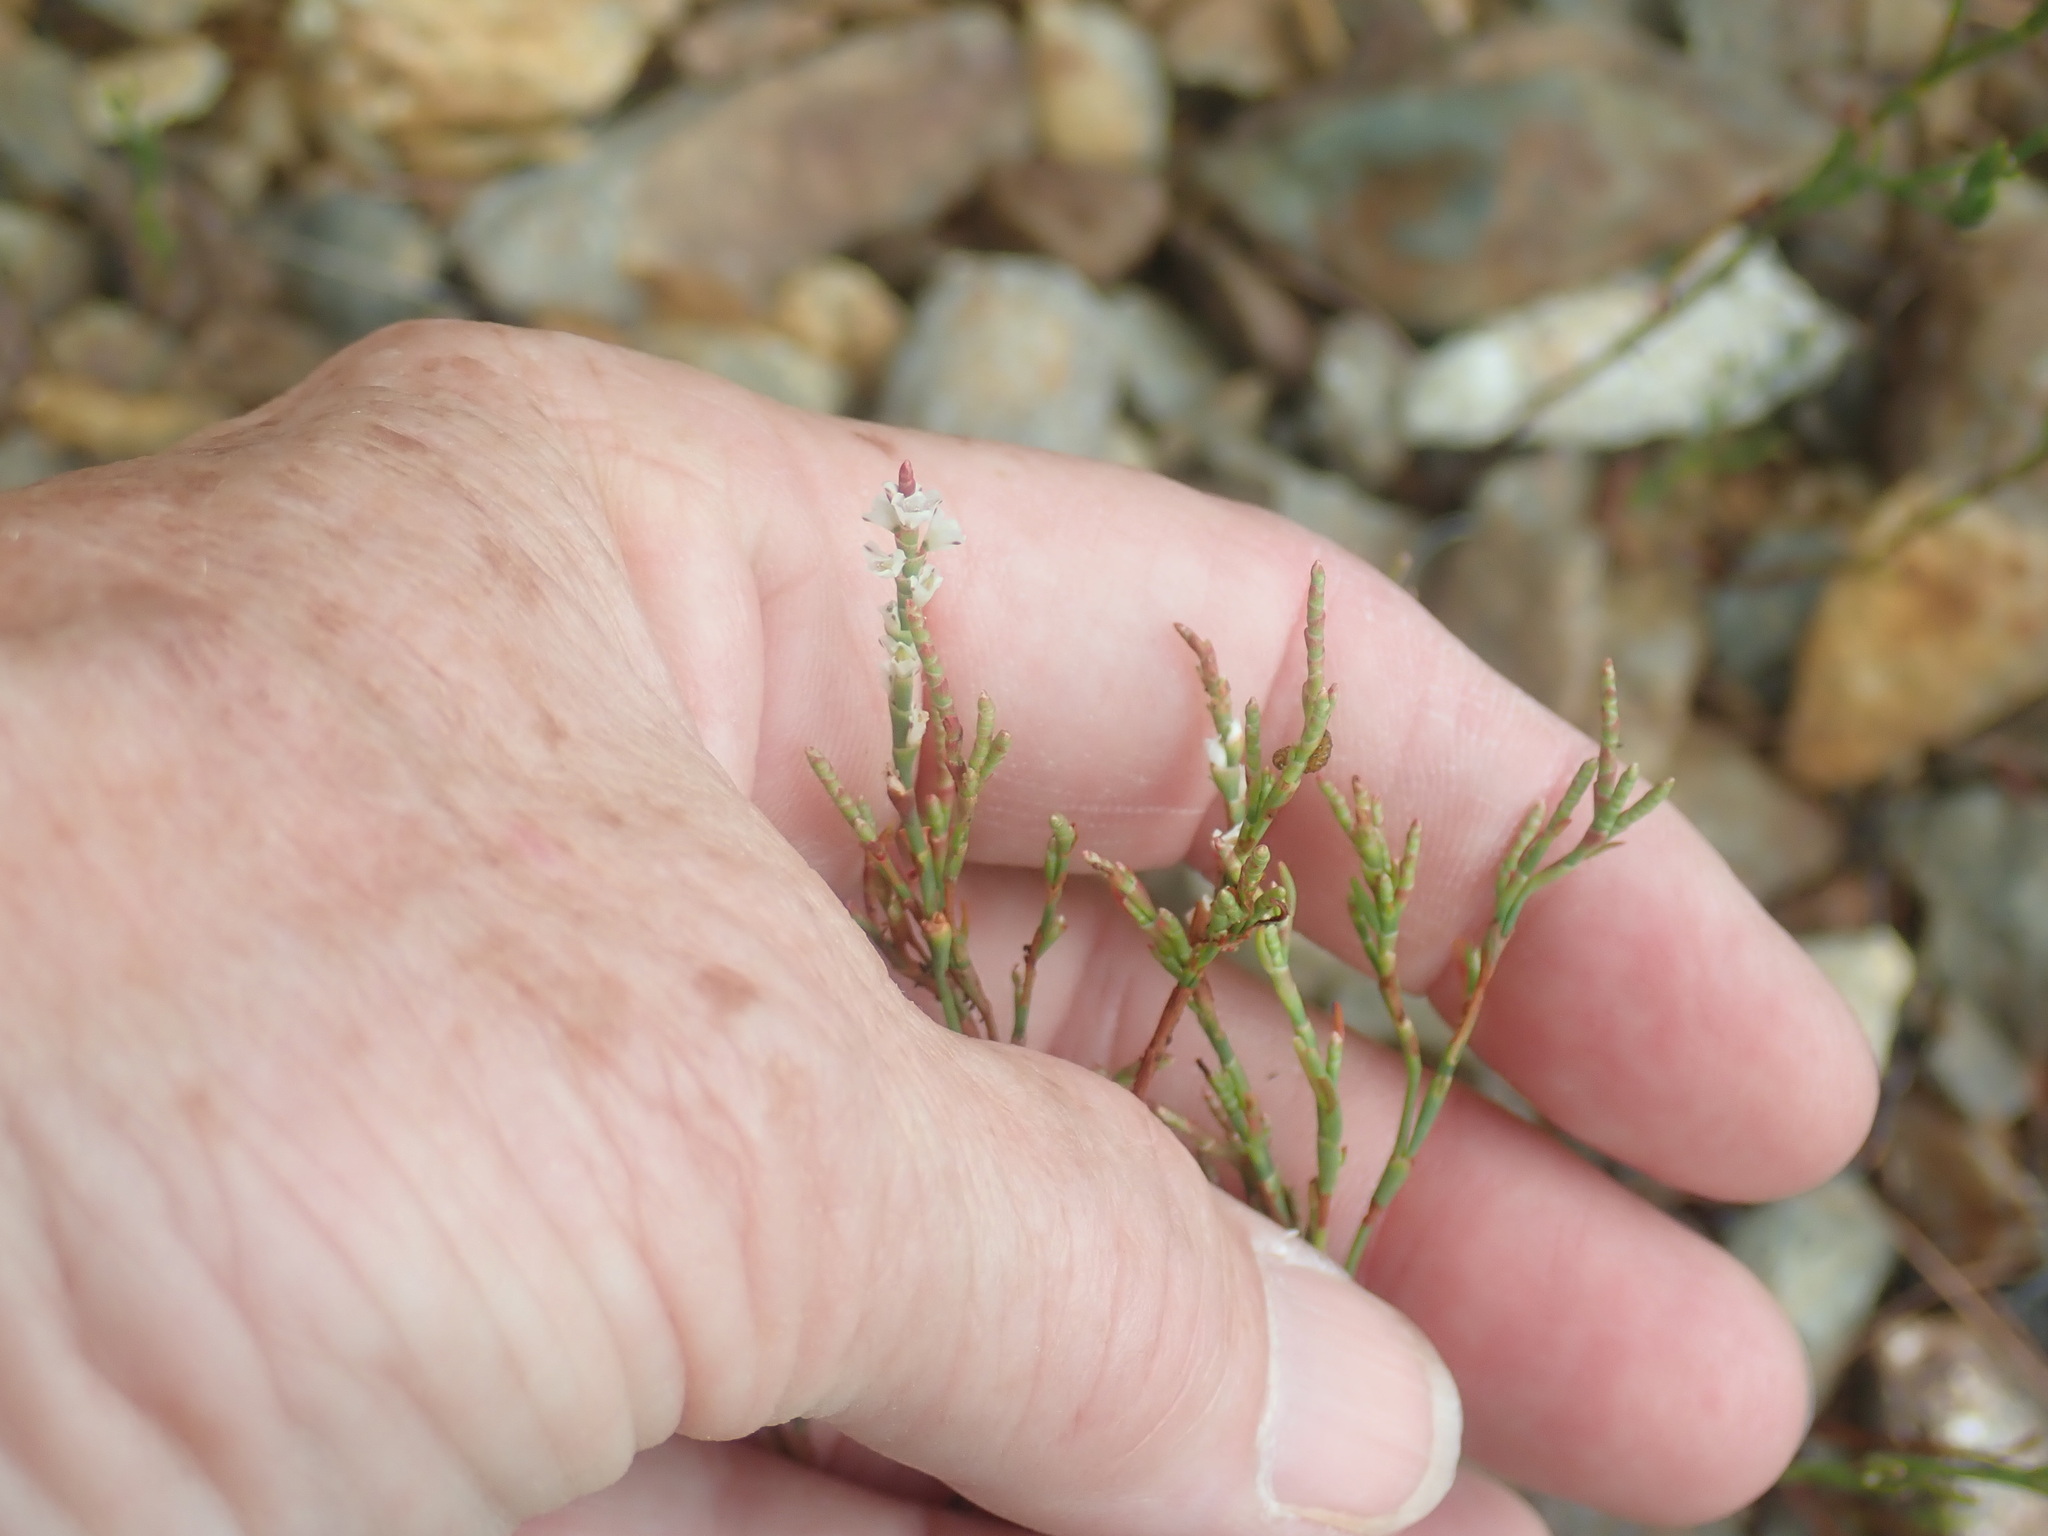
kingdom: Plantae
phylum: Tracheophyta
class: Magnoliopsida
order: Caryophyllales
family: Polygonaceae
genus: Polygonella
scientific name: Polygonella articulata
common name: Coastal jointweed
